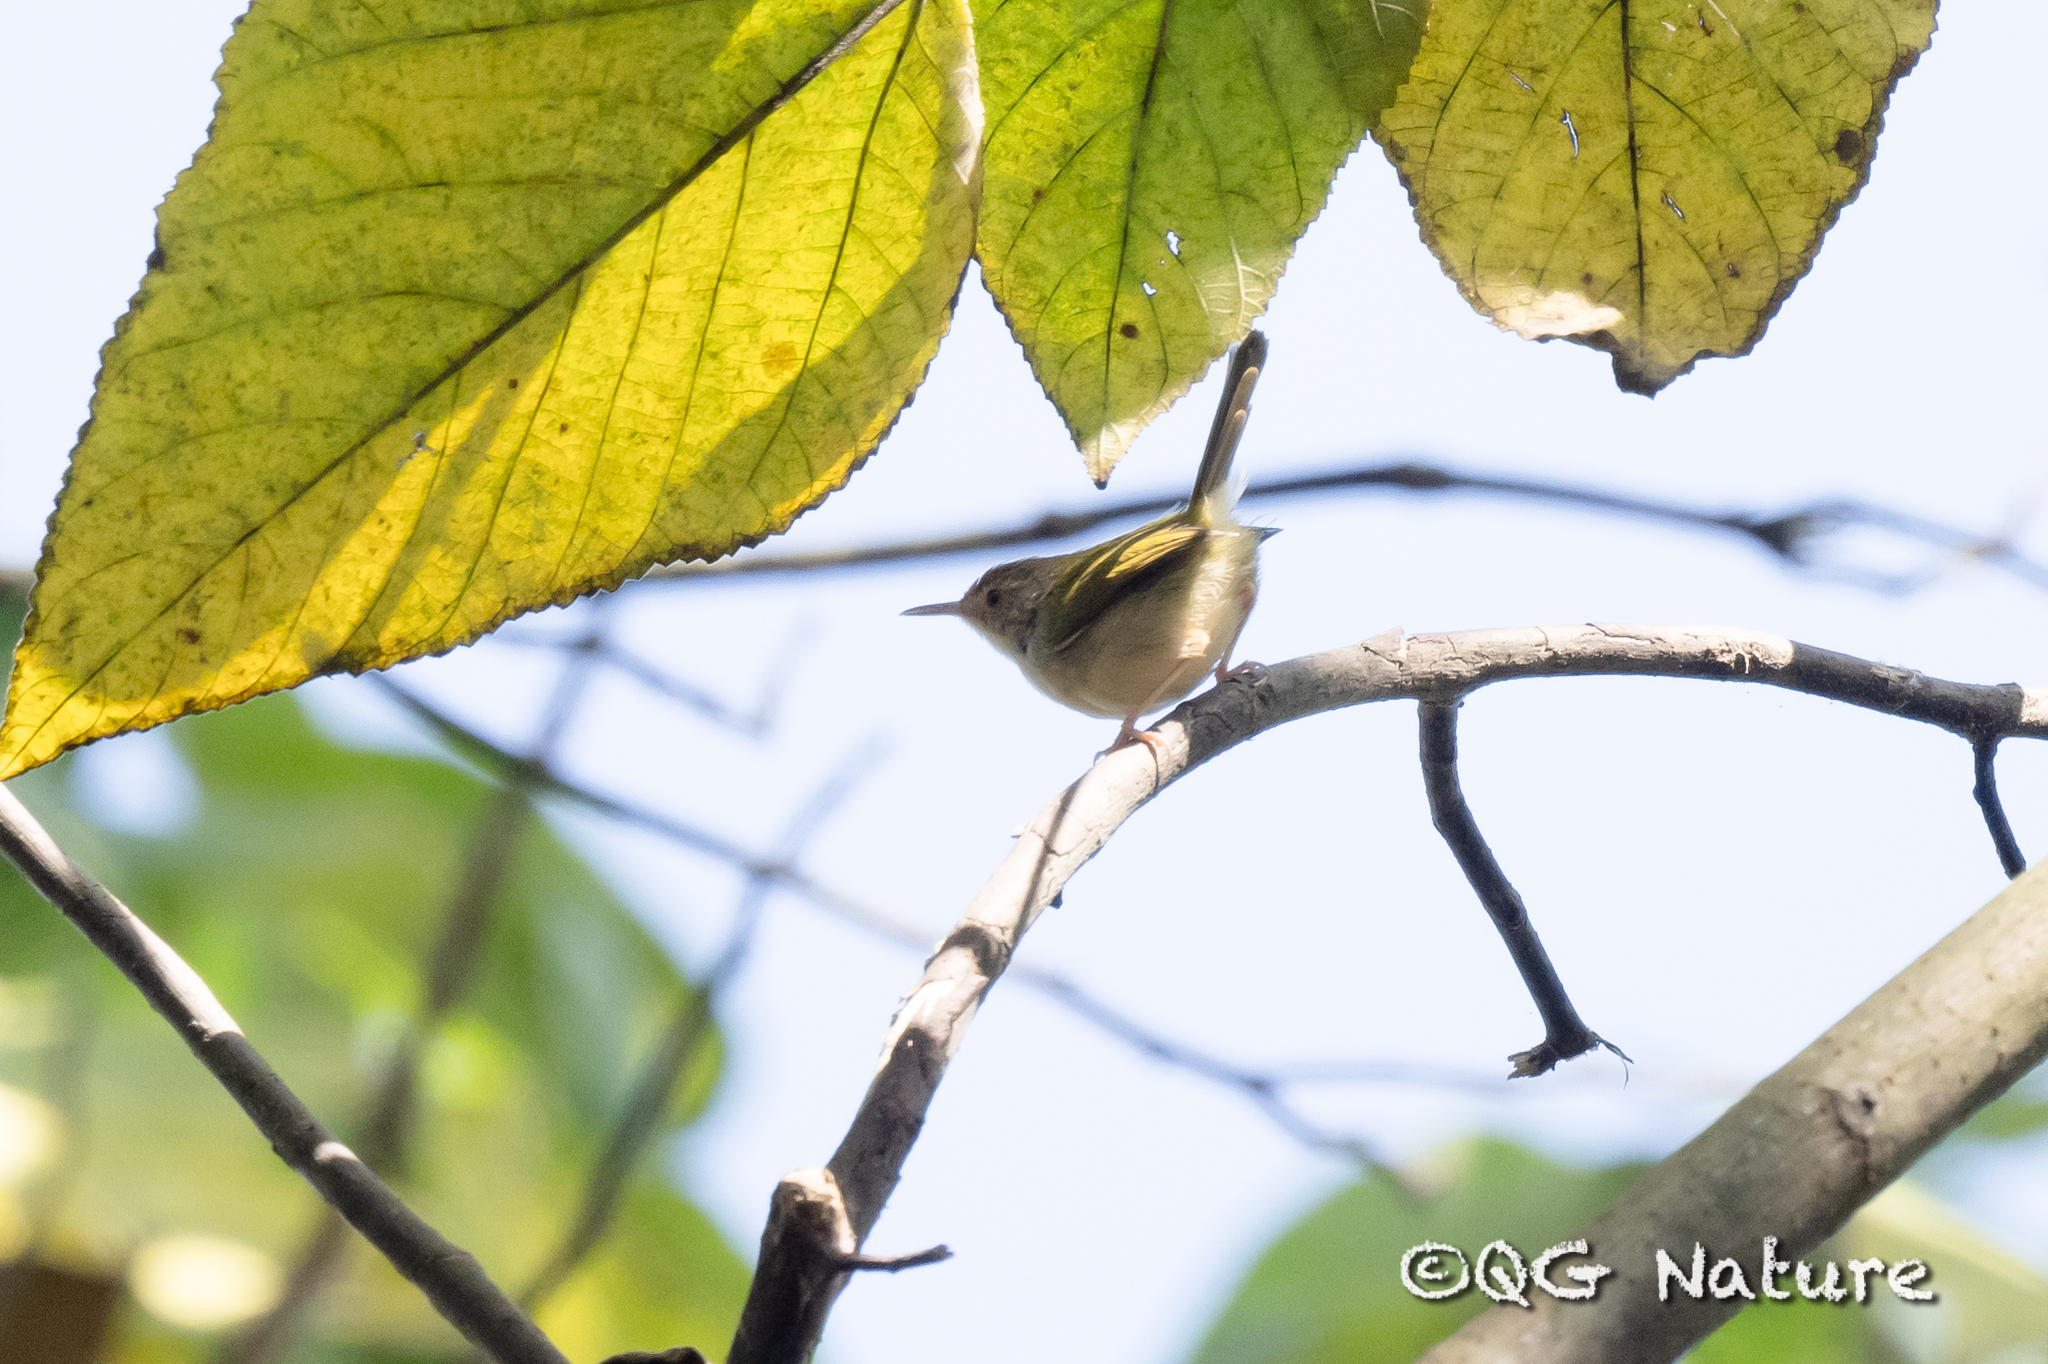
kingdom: Animalia
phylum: Chordata
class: Aves
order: Passeriformes
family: Cisticolidae
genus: Orthotomus
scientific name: Orthotomus sutorius
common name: Common tailorbird
